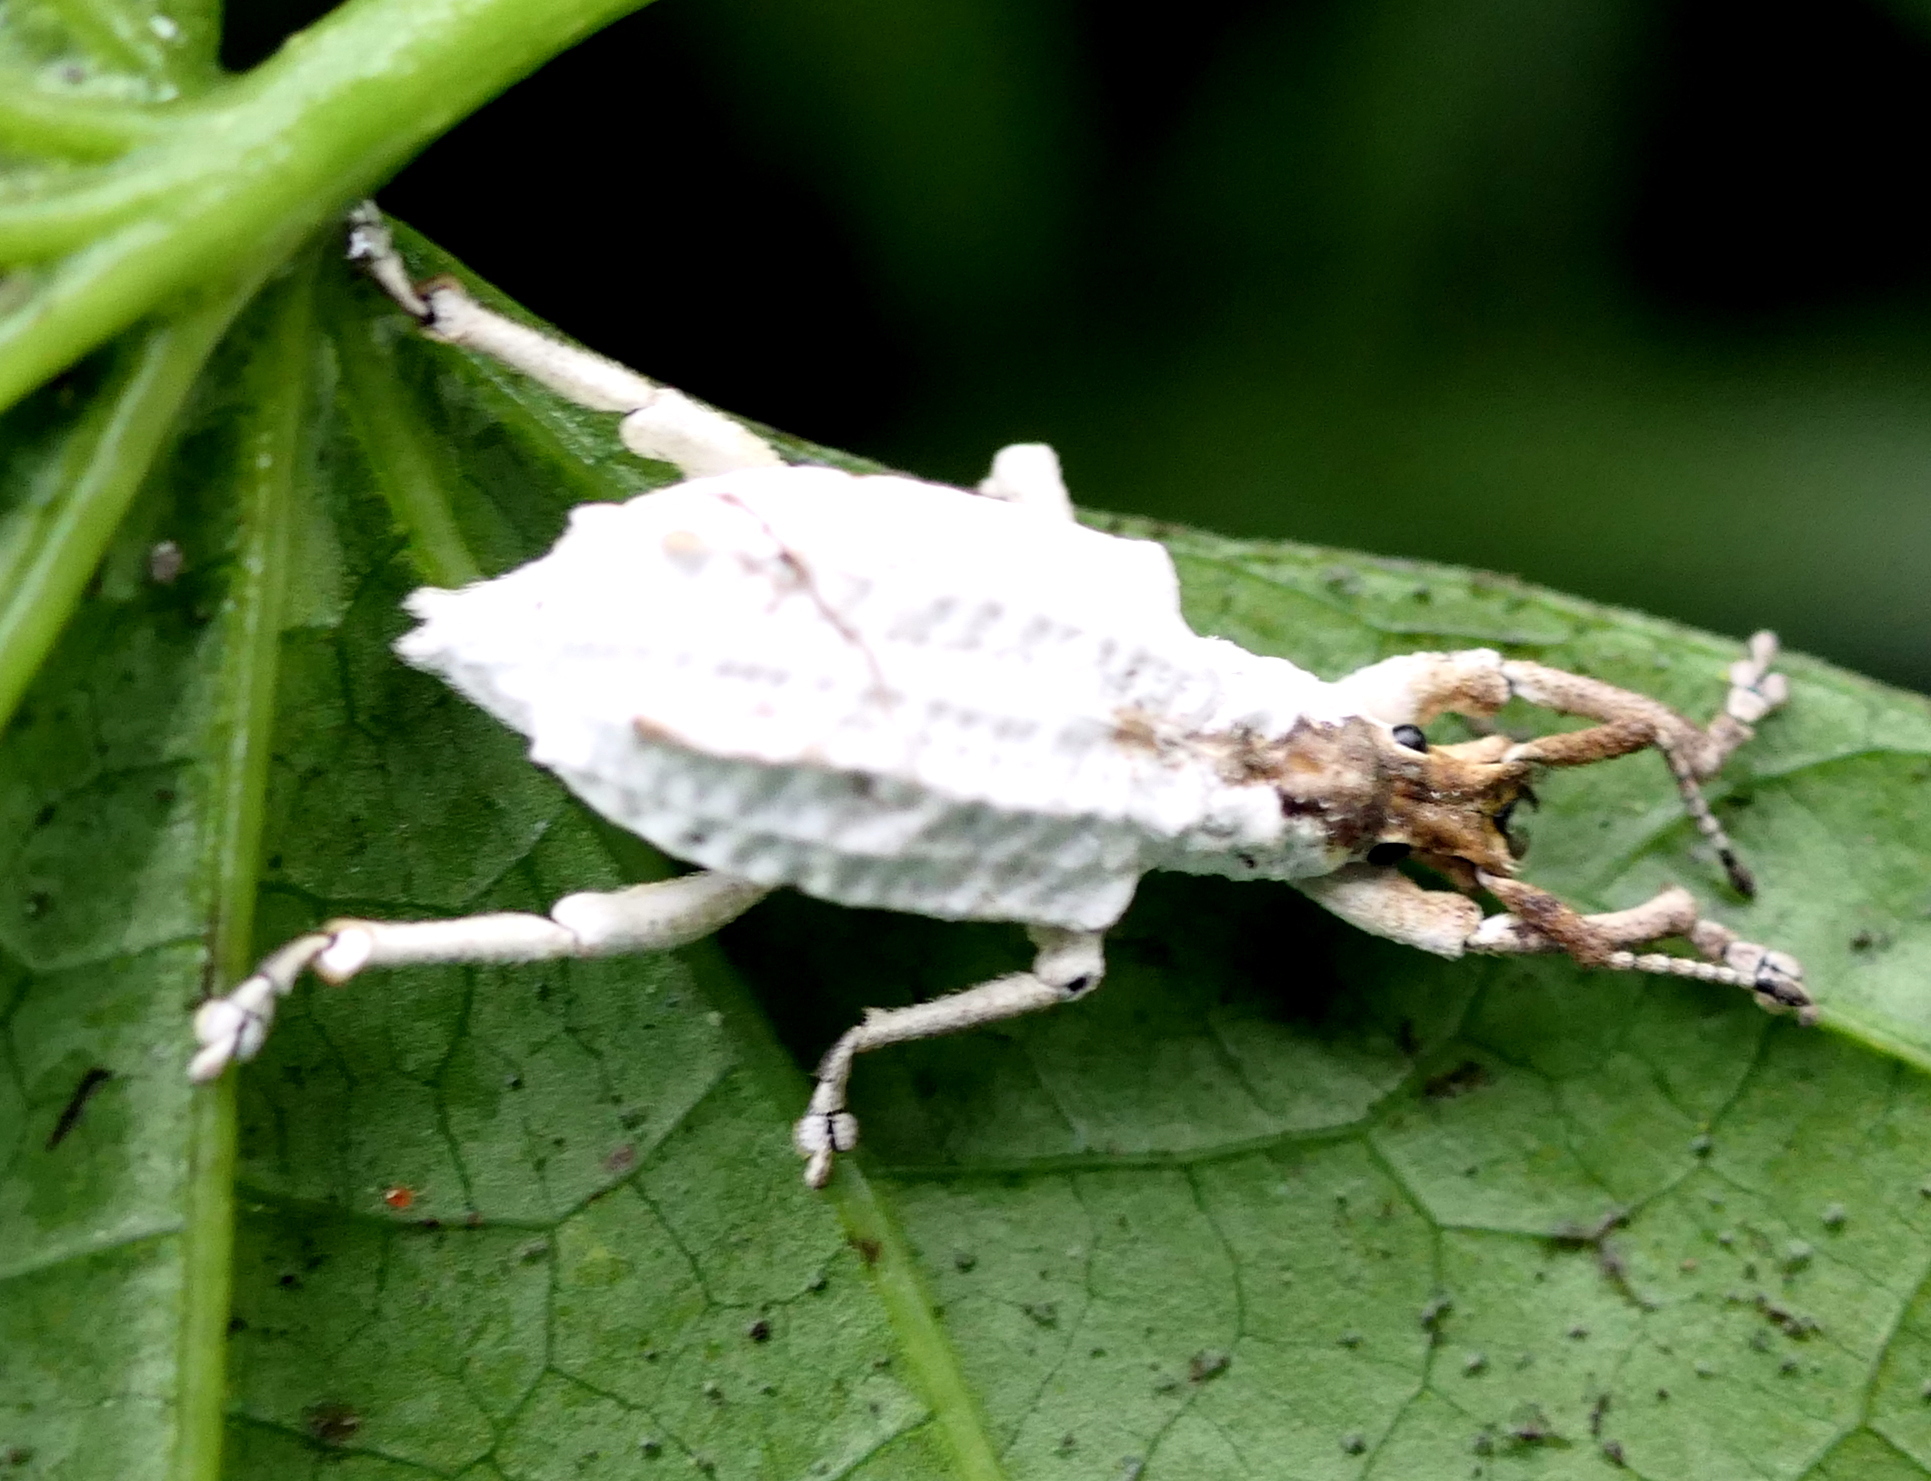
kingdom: Animalia
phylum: Arthropoda
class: Insecta
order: Coleoptera
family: Curculionidae
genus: Compsus
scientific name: Compsus niveus
